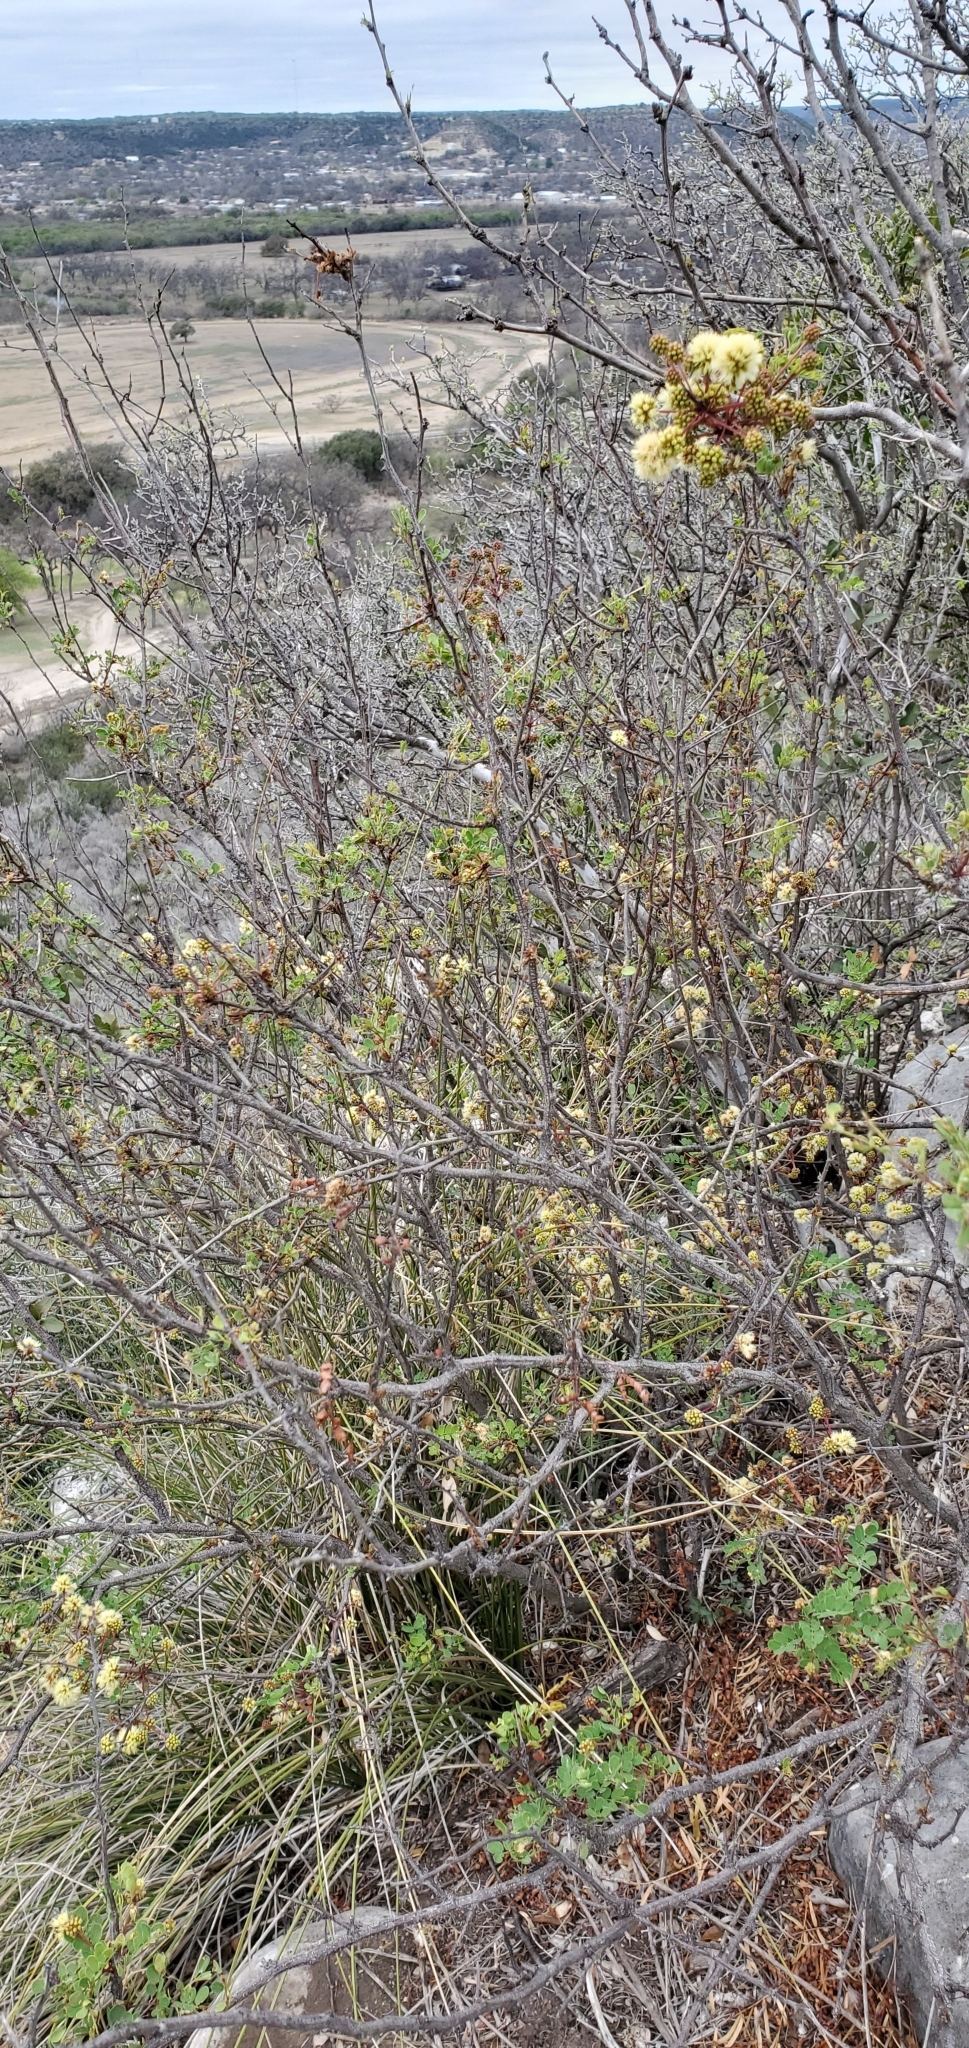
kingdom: Plantae
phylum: Tracheophyta
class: Magnoliopsida
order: Fabales
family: Fabaceae
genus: Senegalia
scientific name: Senegalia roemeriana
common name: Roemer's acacia
